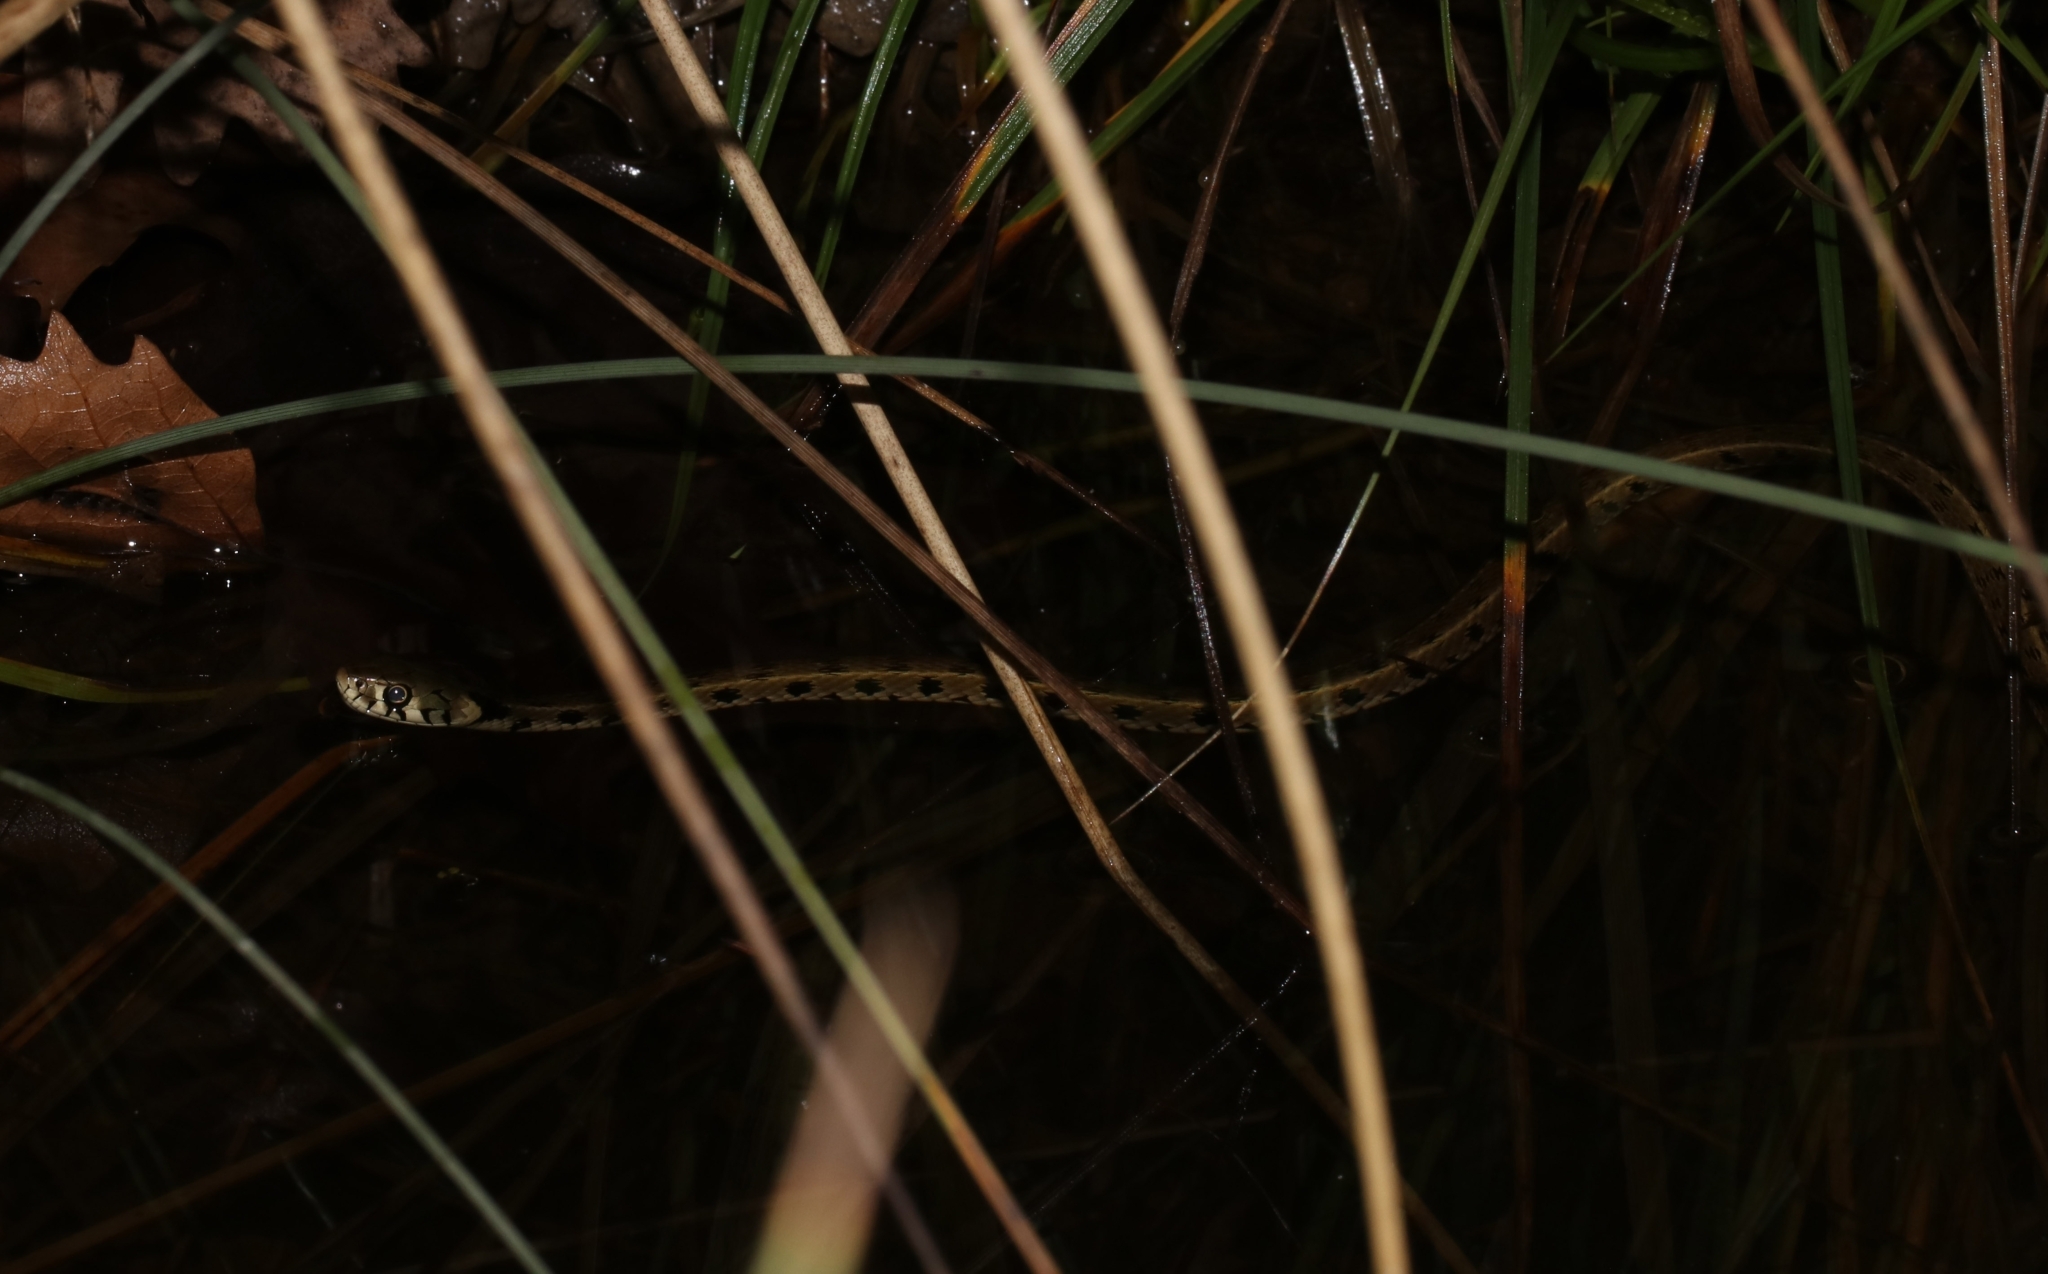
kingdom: Animalia
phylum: Chordata
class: Squamata
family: Colubridae
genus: Natrix
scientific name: Natrix natrix
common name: Grass snake
